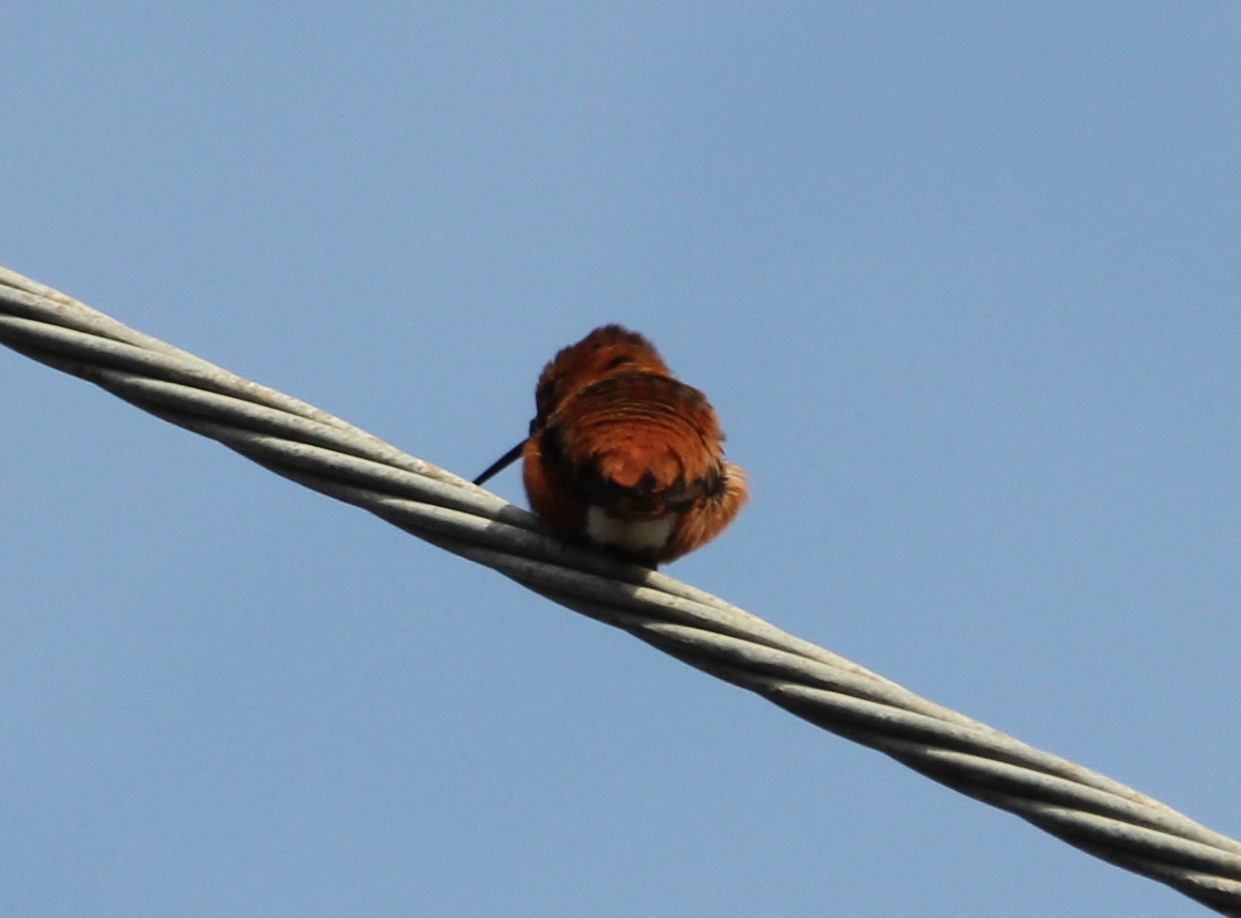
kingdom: Animalia
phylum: Chordata
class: Aves
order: Apodiformes
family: Trochilidae
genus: Selasphorus
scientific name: Selasphorus sasin
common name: Allen's hummingbird
